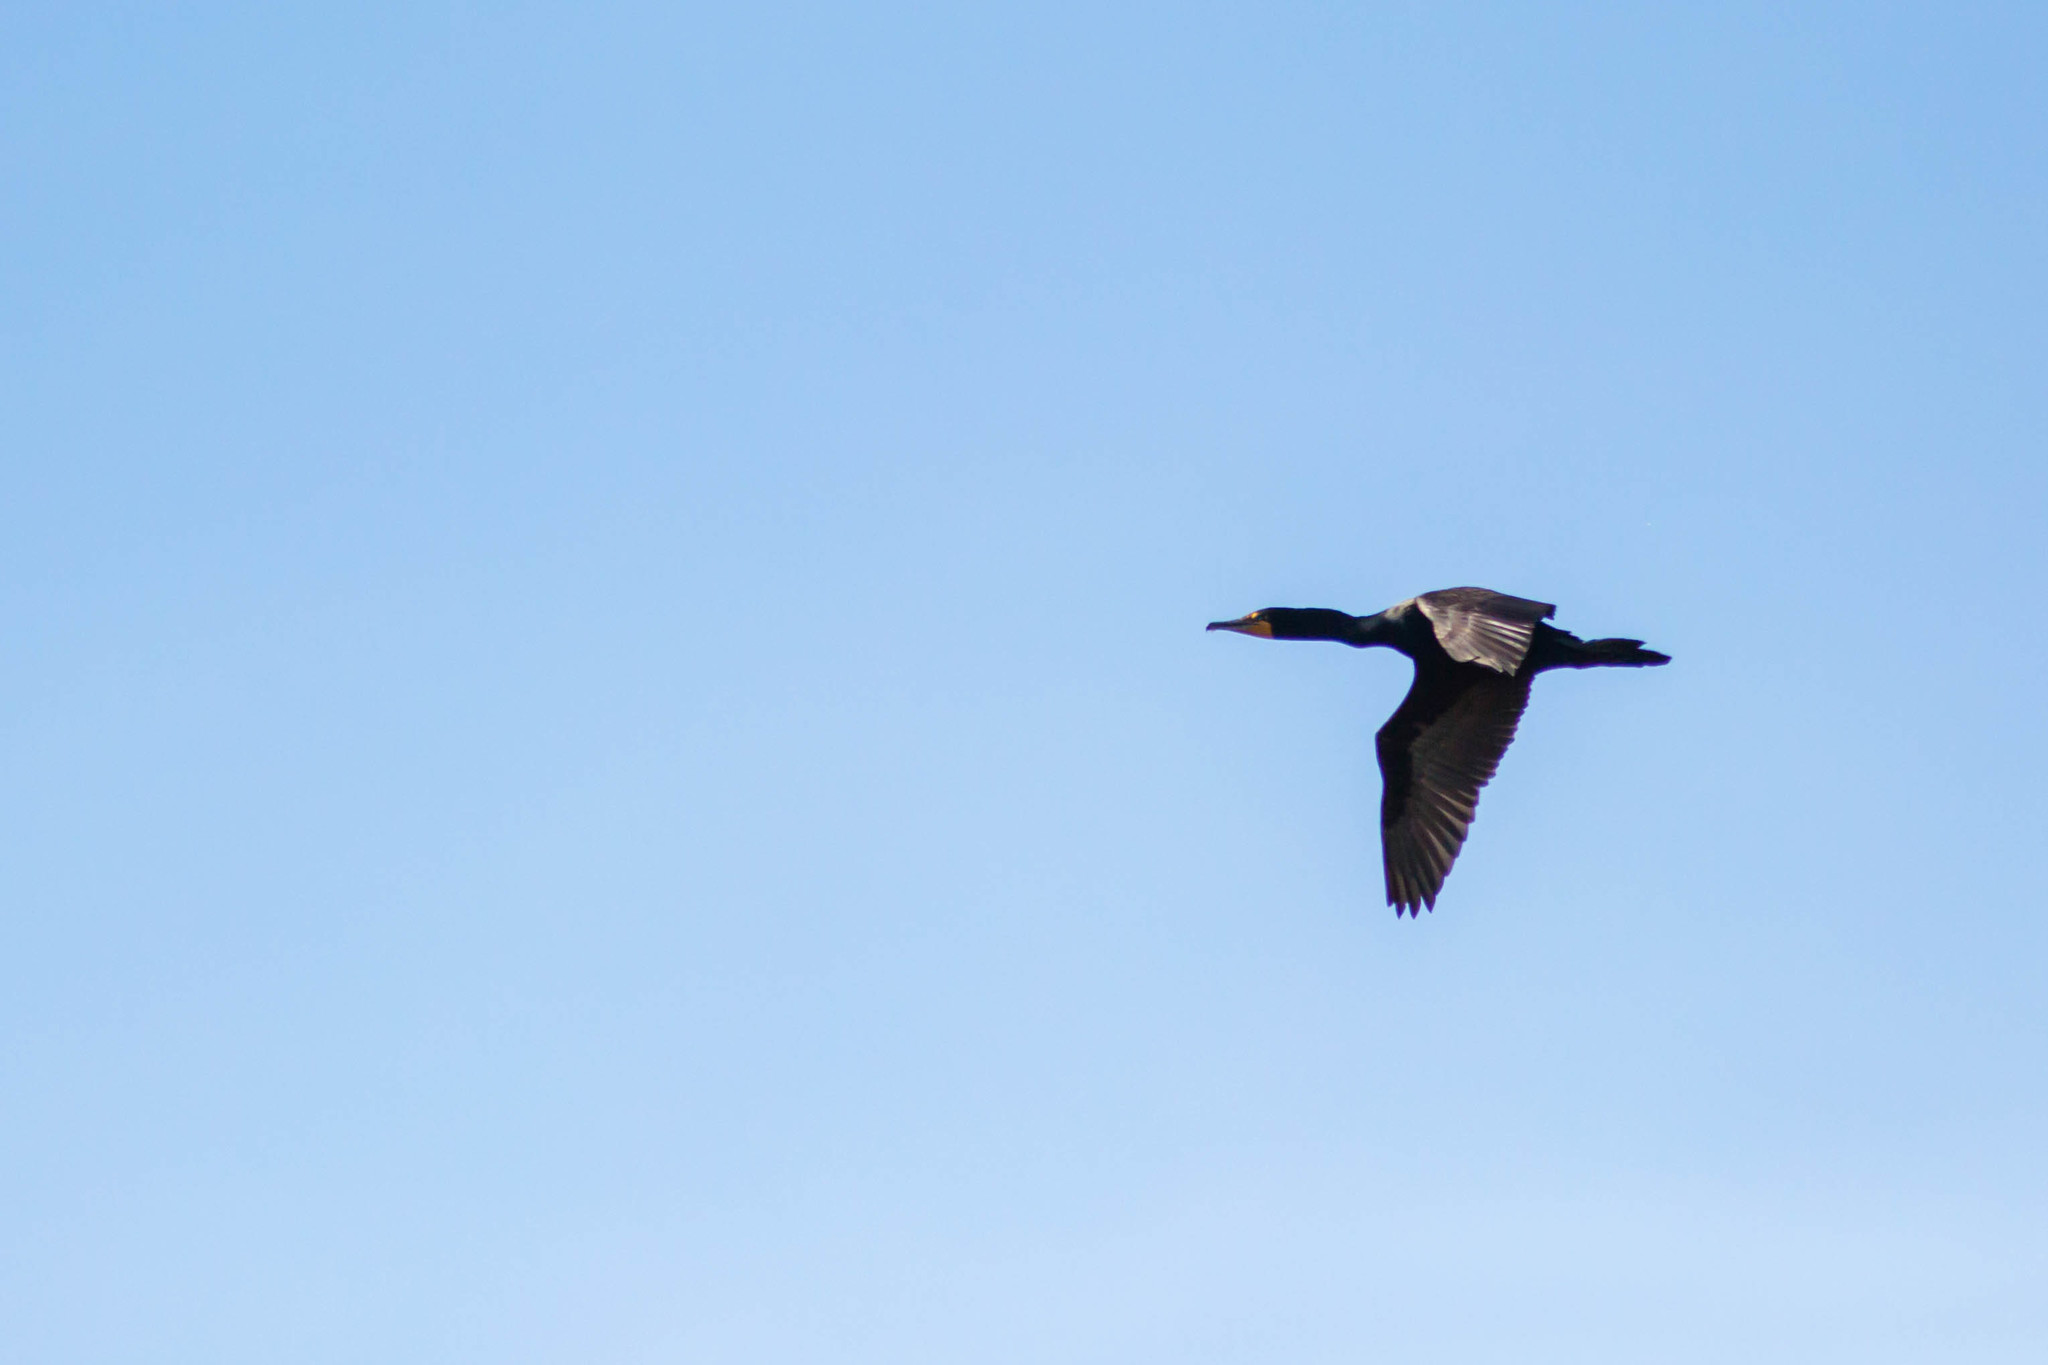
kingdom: Animalia
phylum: Chordata
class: Aves
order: Suliformes
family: Phalacrocoracidae
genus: Phalacrocorax
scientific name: Phalacrocorax auritus
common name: Double-crested cormorant
